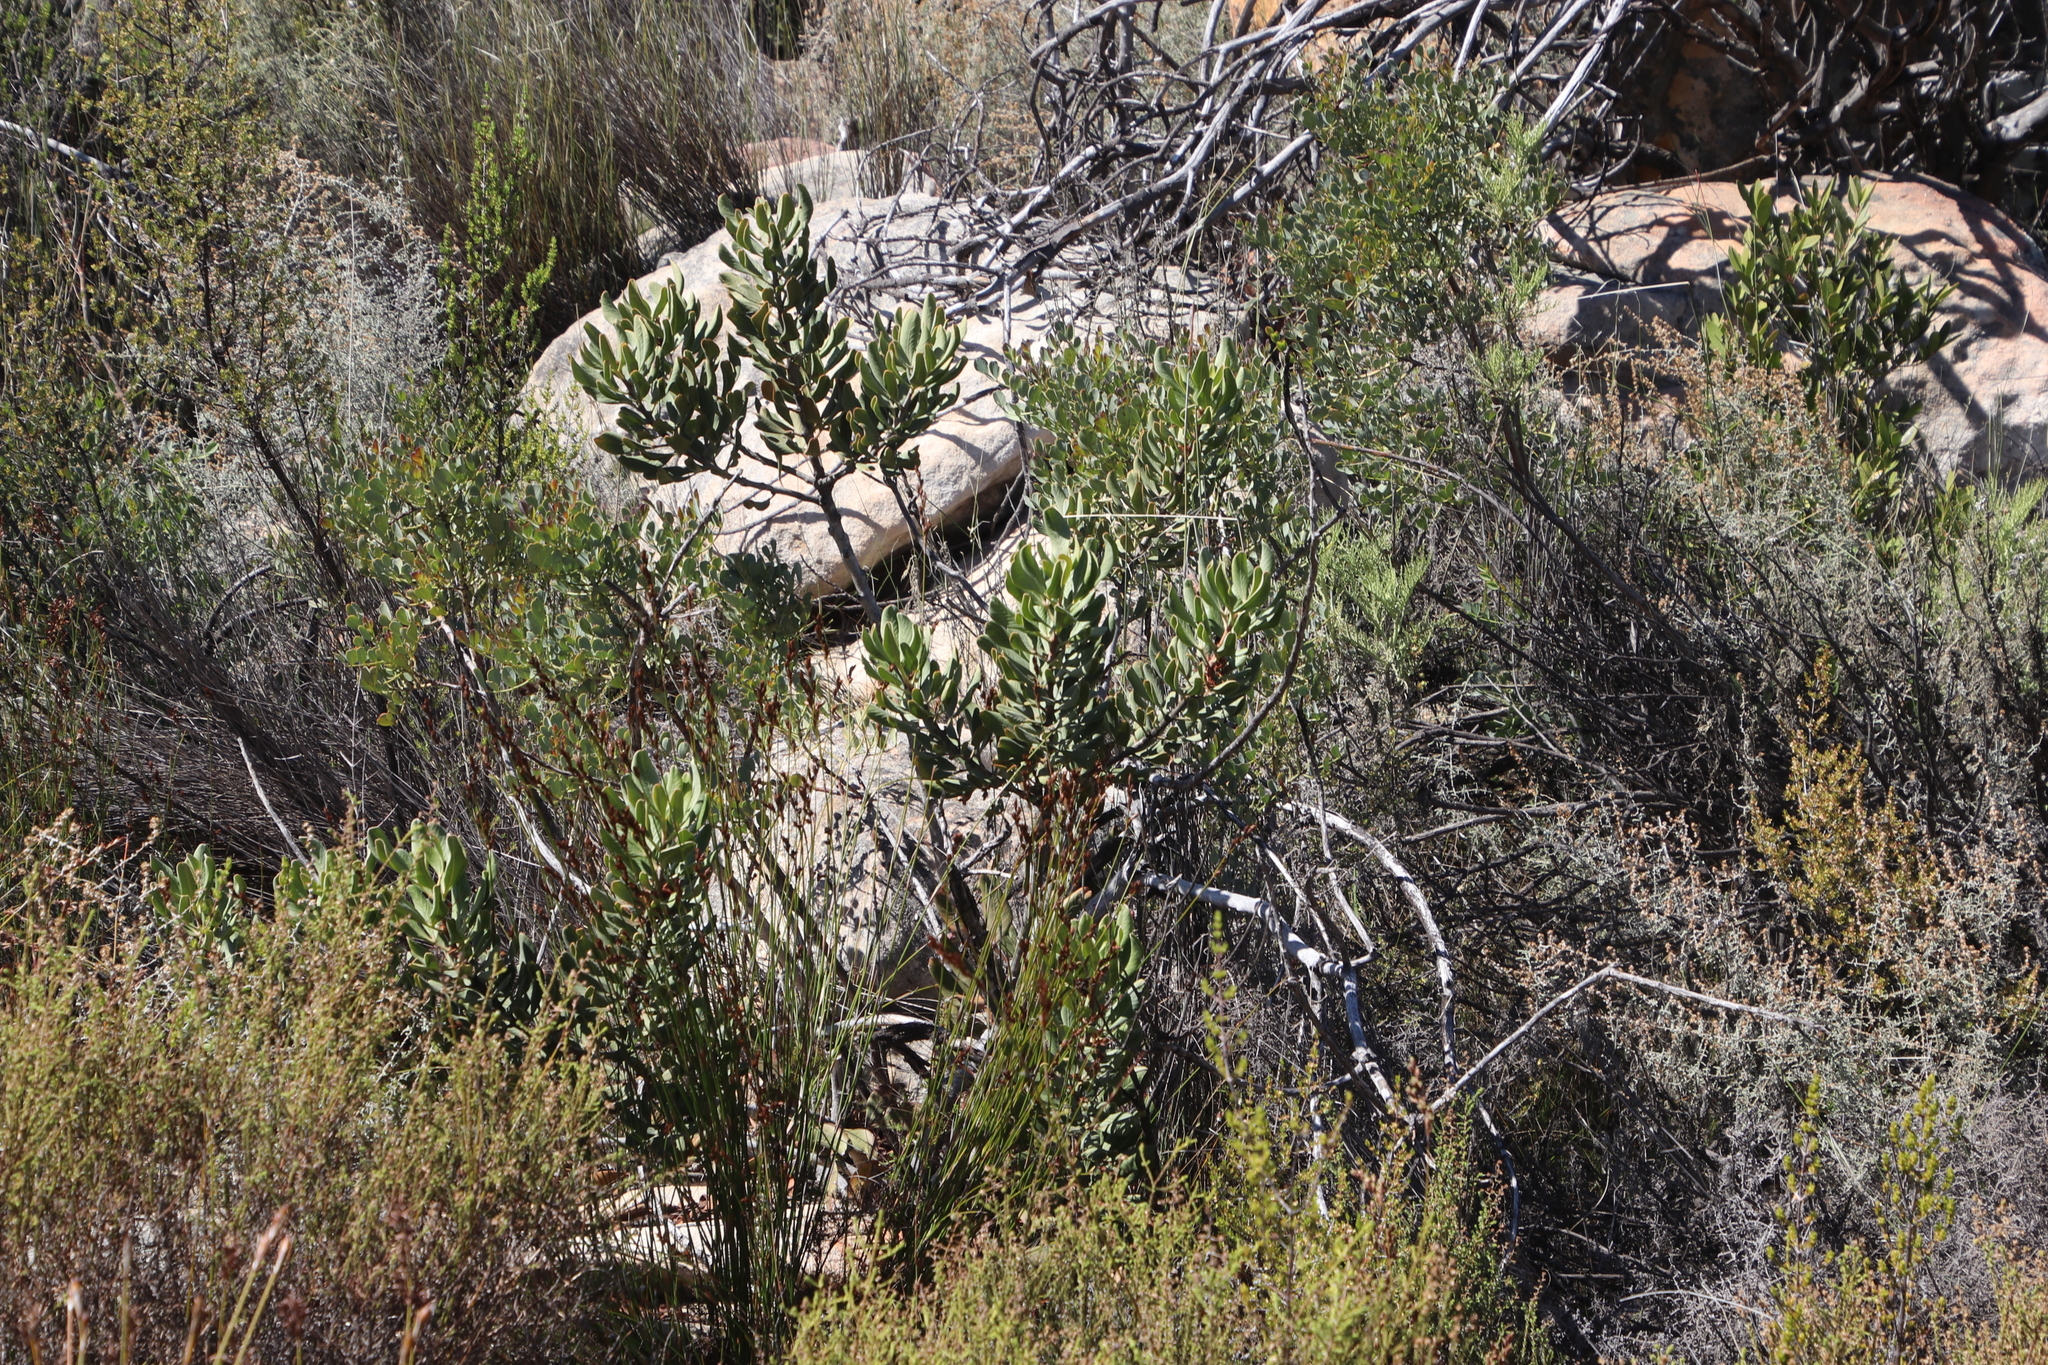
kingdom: Plantae
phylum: Tracheophyta
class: Magnoliopsida
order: Sapindales
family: Anacardiaceae
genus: Searsia
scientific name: Searsia scytophylla
